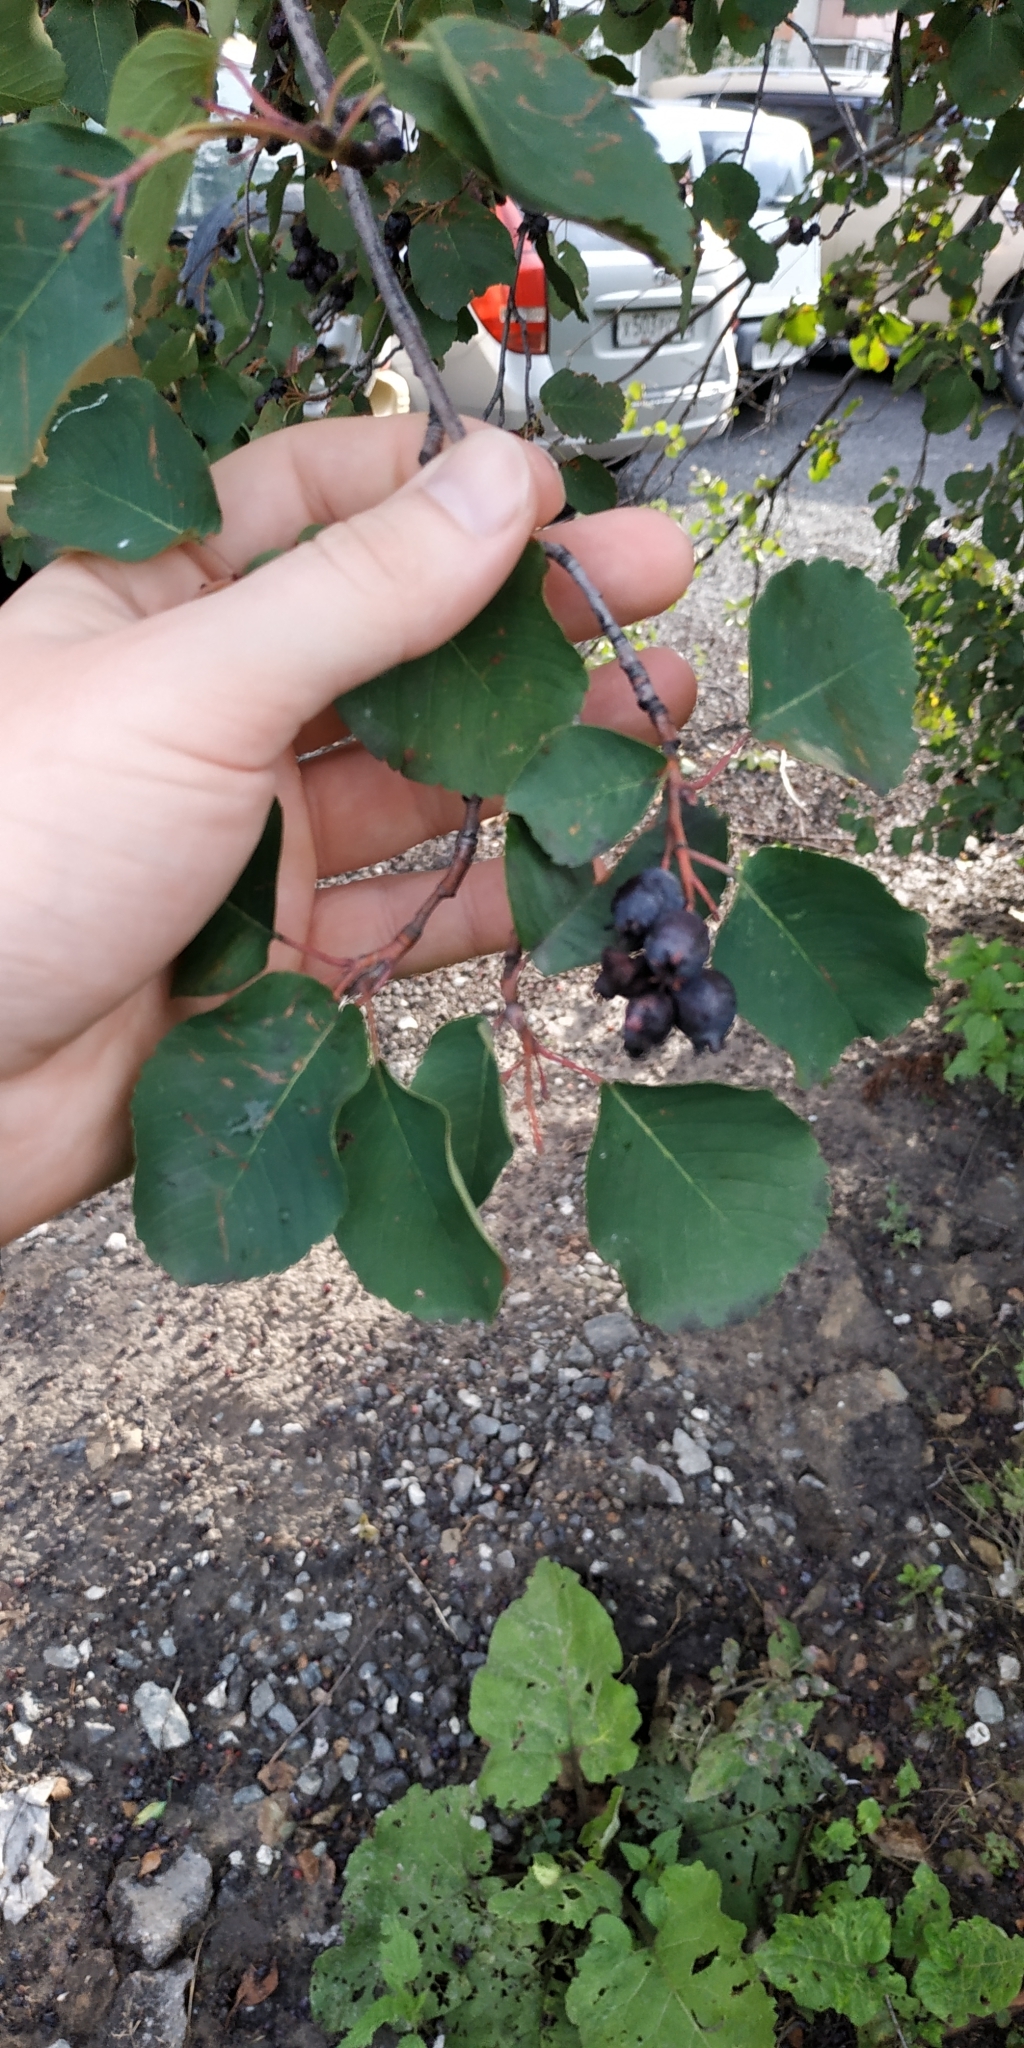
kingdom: Plantae
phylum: Tracheophyta
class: Magnoliopsida
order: Rosales
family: Rosaceae
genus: Amelanchier
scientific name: Amelanchier alnifolia
